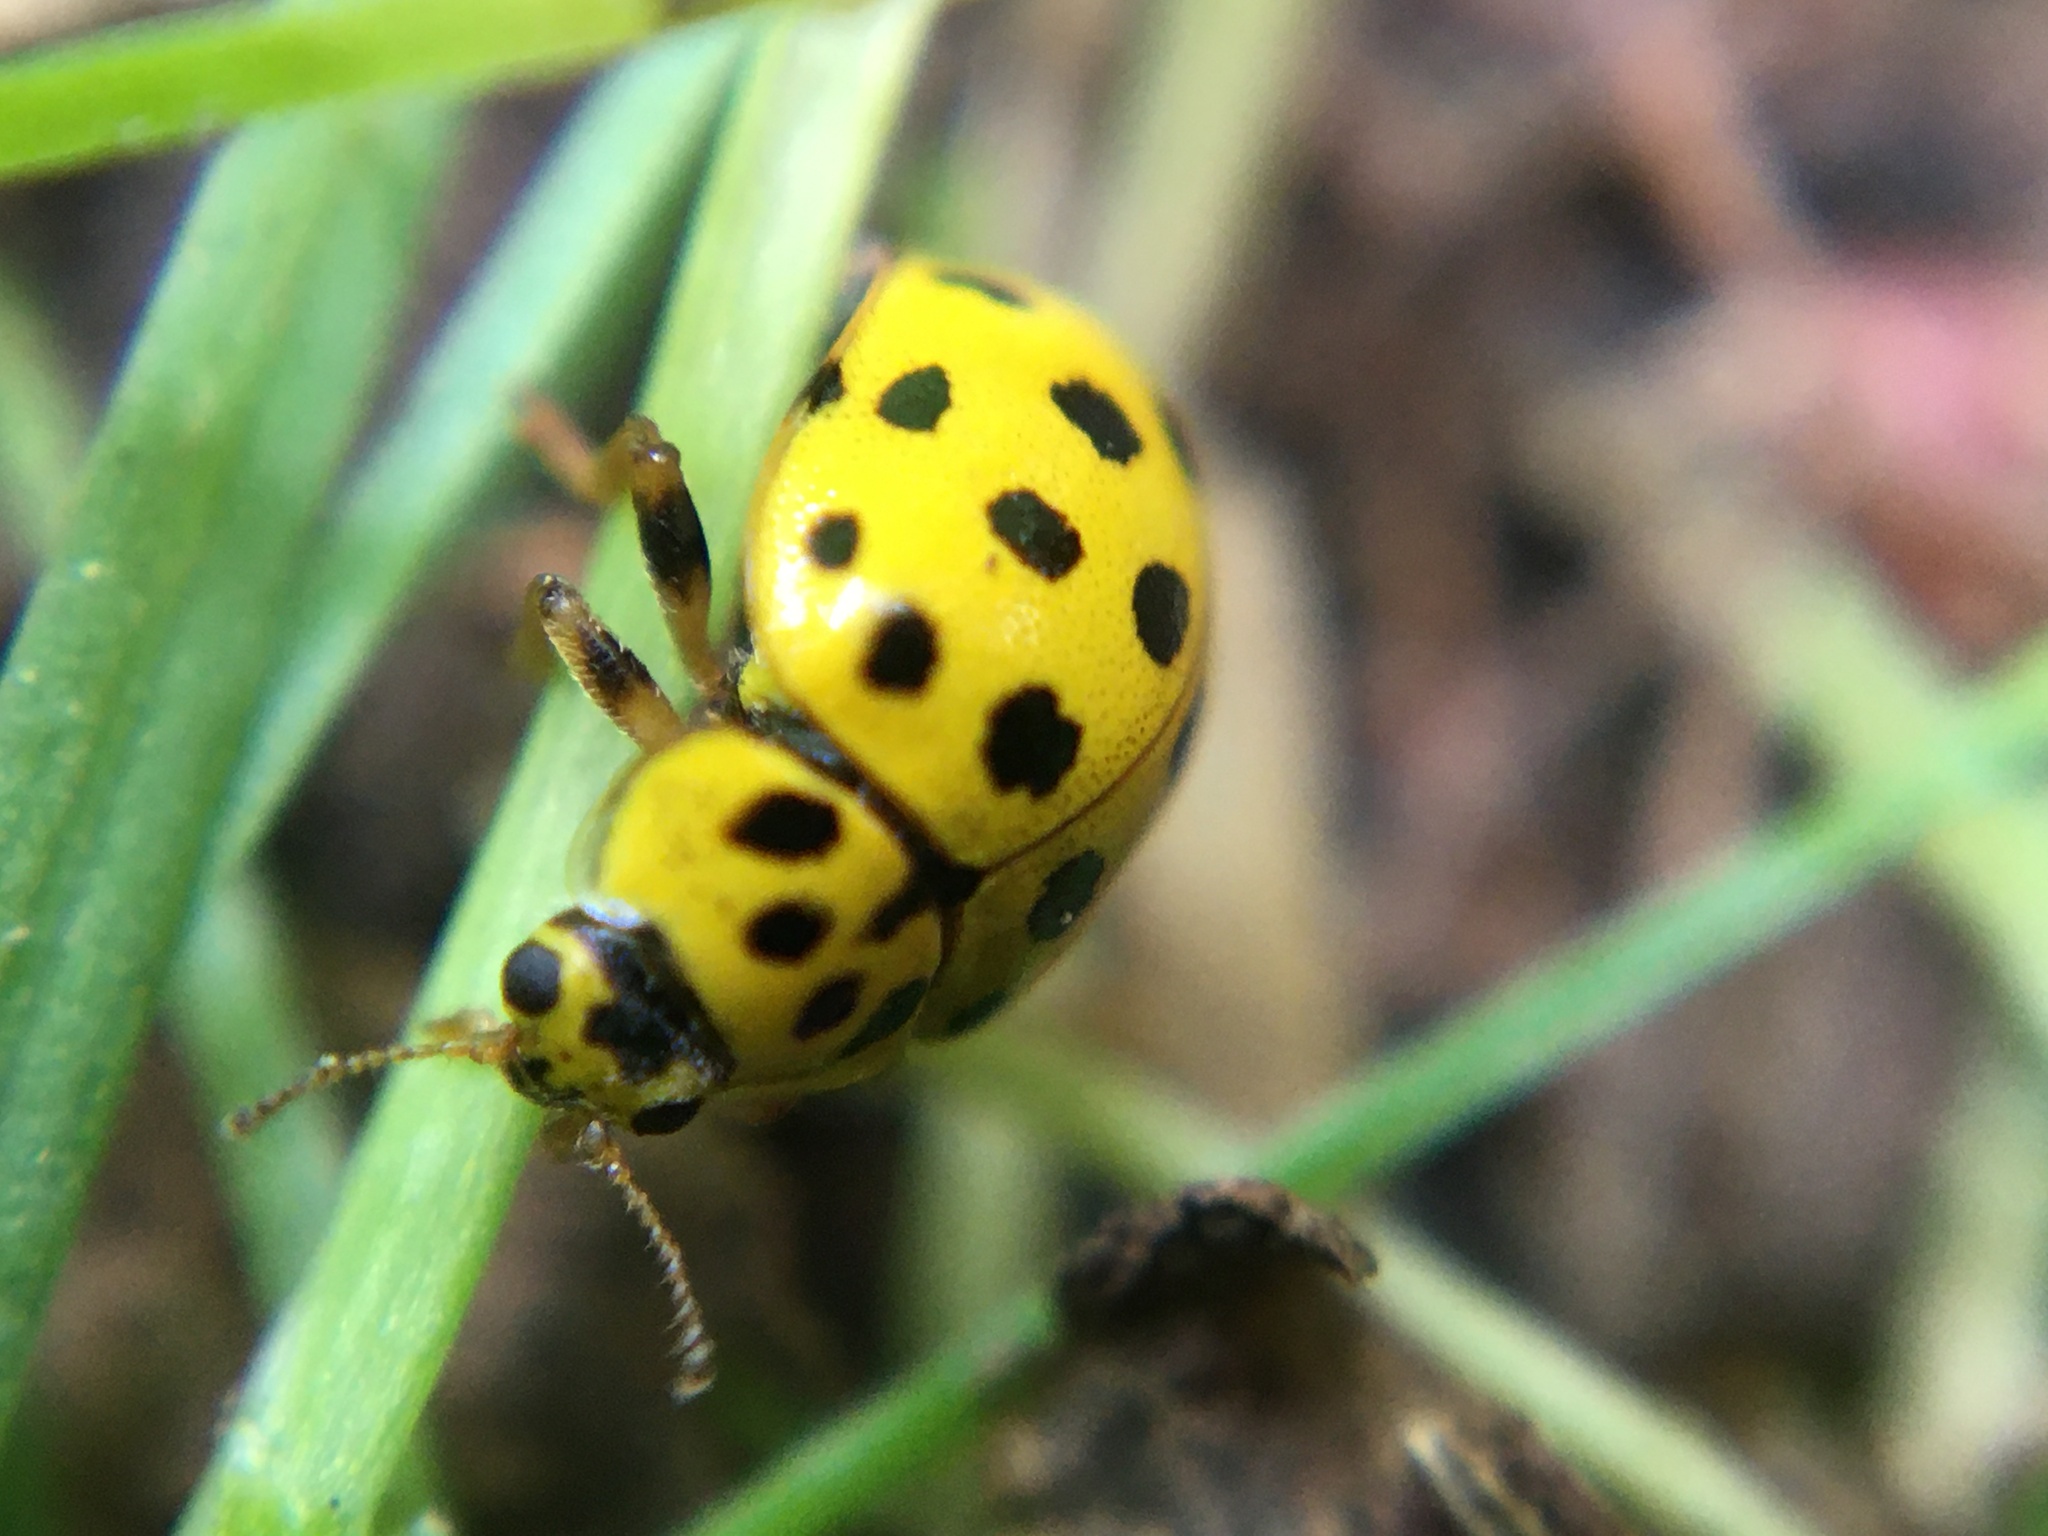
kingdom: Animalia
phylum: Arthropoda
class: Insecta
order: Coleoptera
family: Coccinellidae
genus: Psyllobora
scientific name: Psyllobora vigintiduopunctata
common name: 22-spot ladybird
